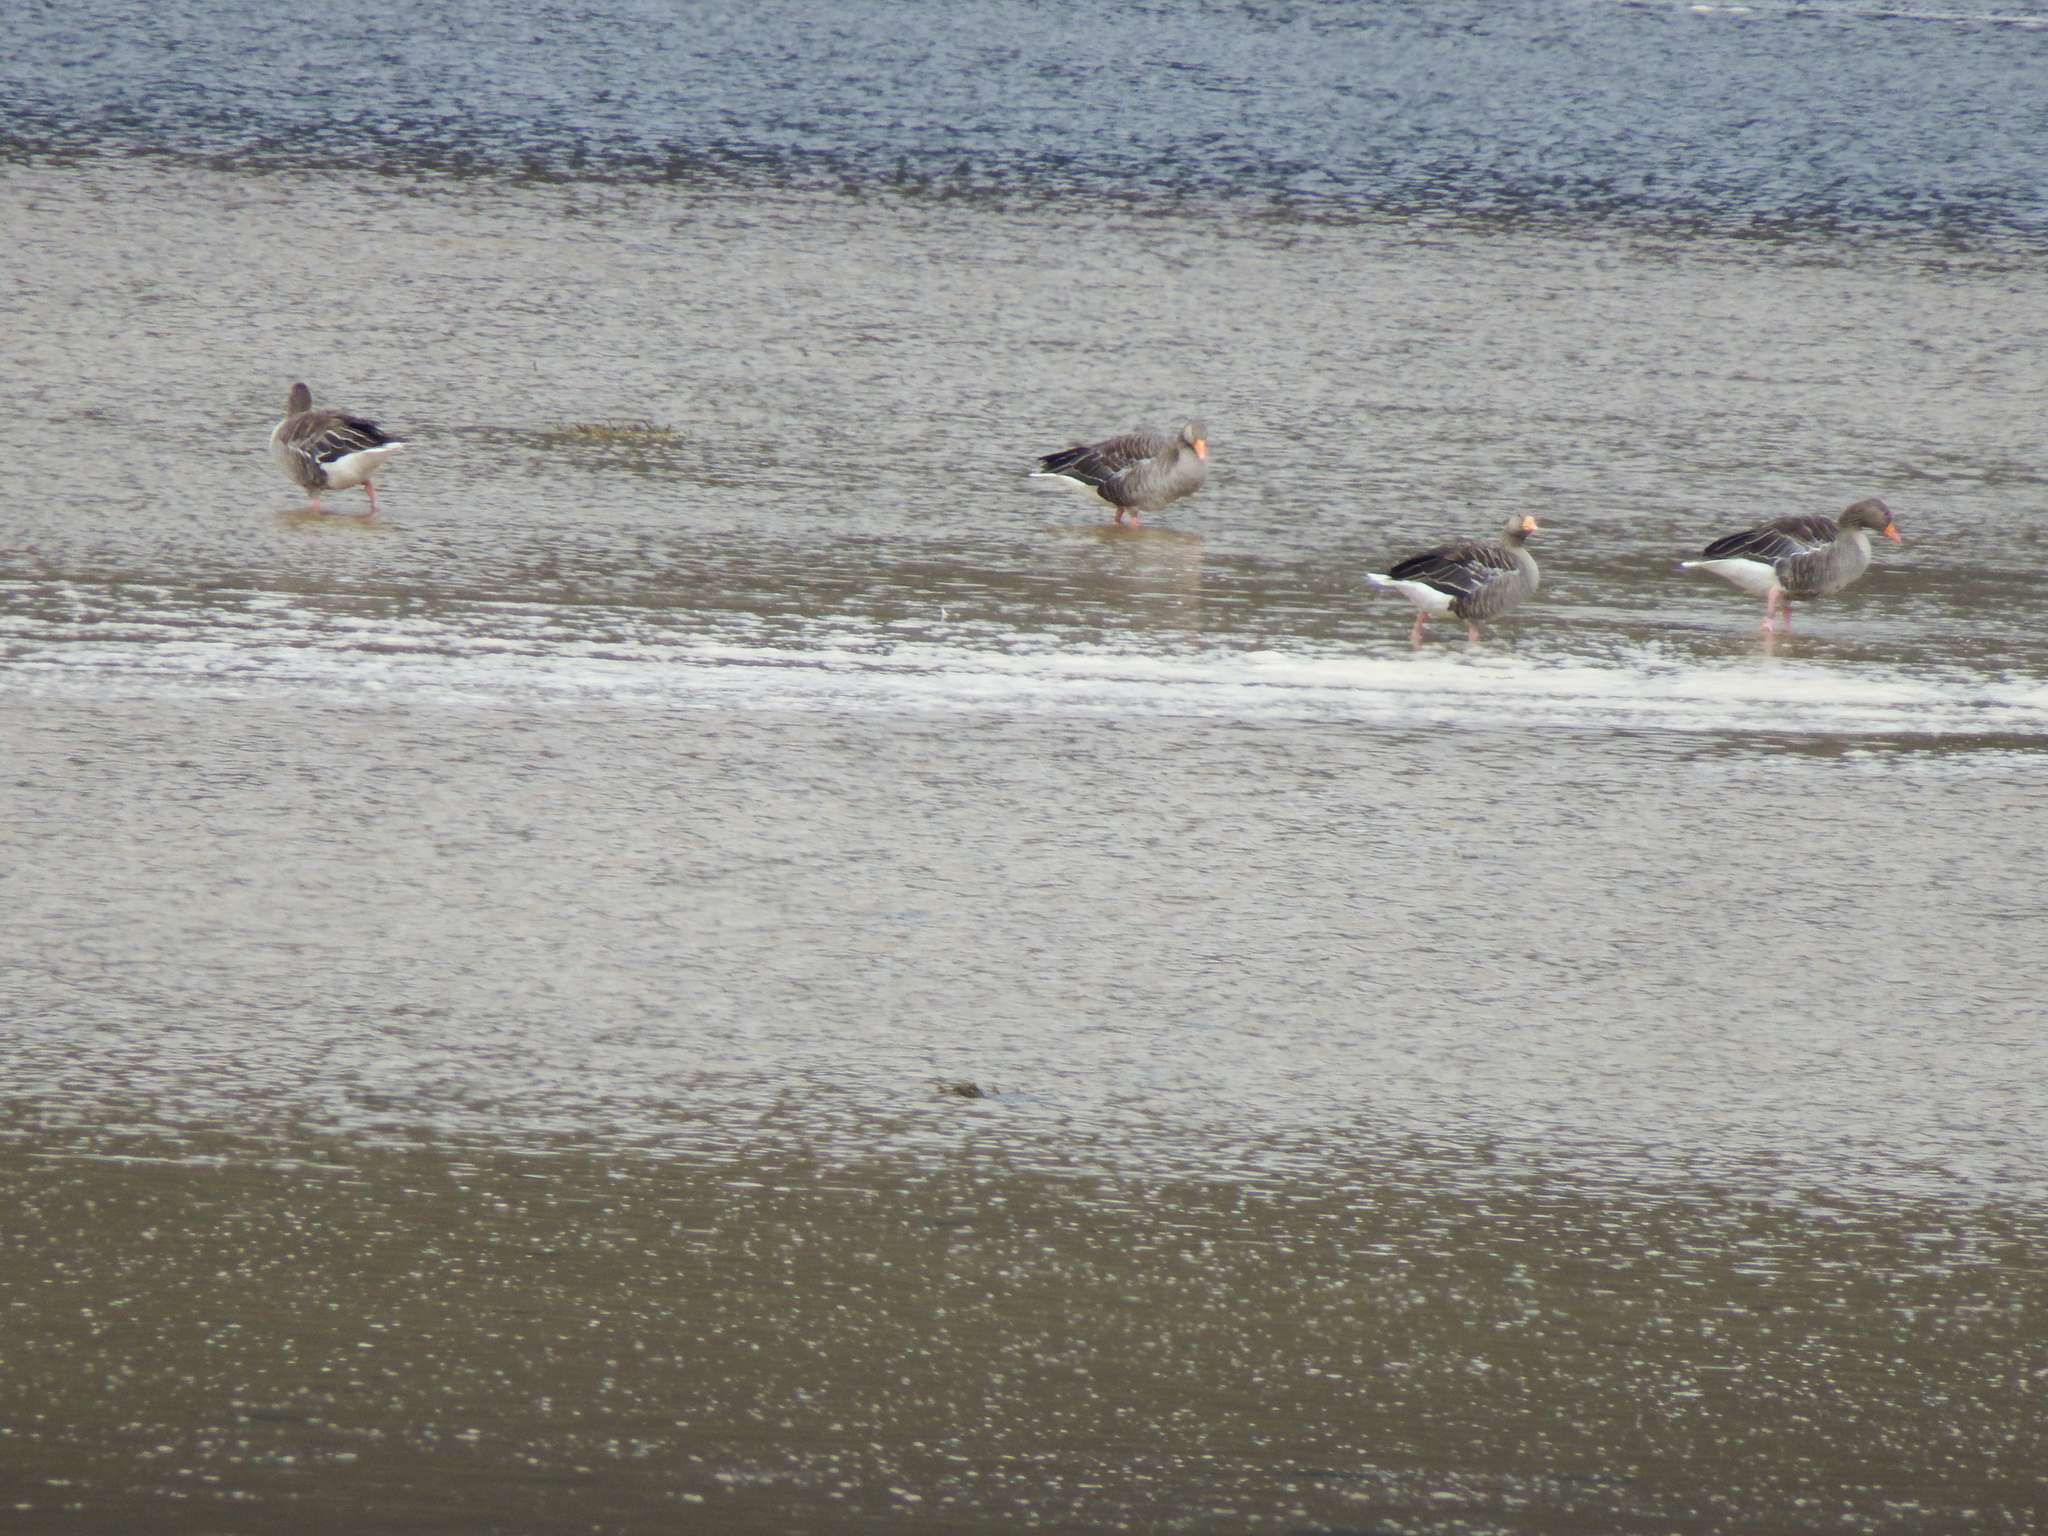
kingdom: Animalia
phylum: Chordata
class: Aves
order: Anseriformes
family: Anatidae
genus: Anser
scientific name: Anser anser
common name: Greylag goose
